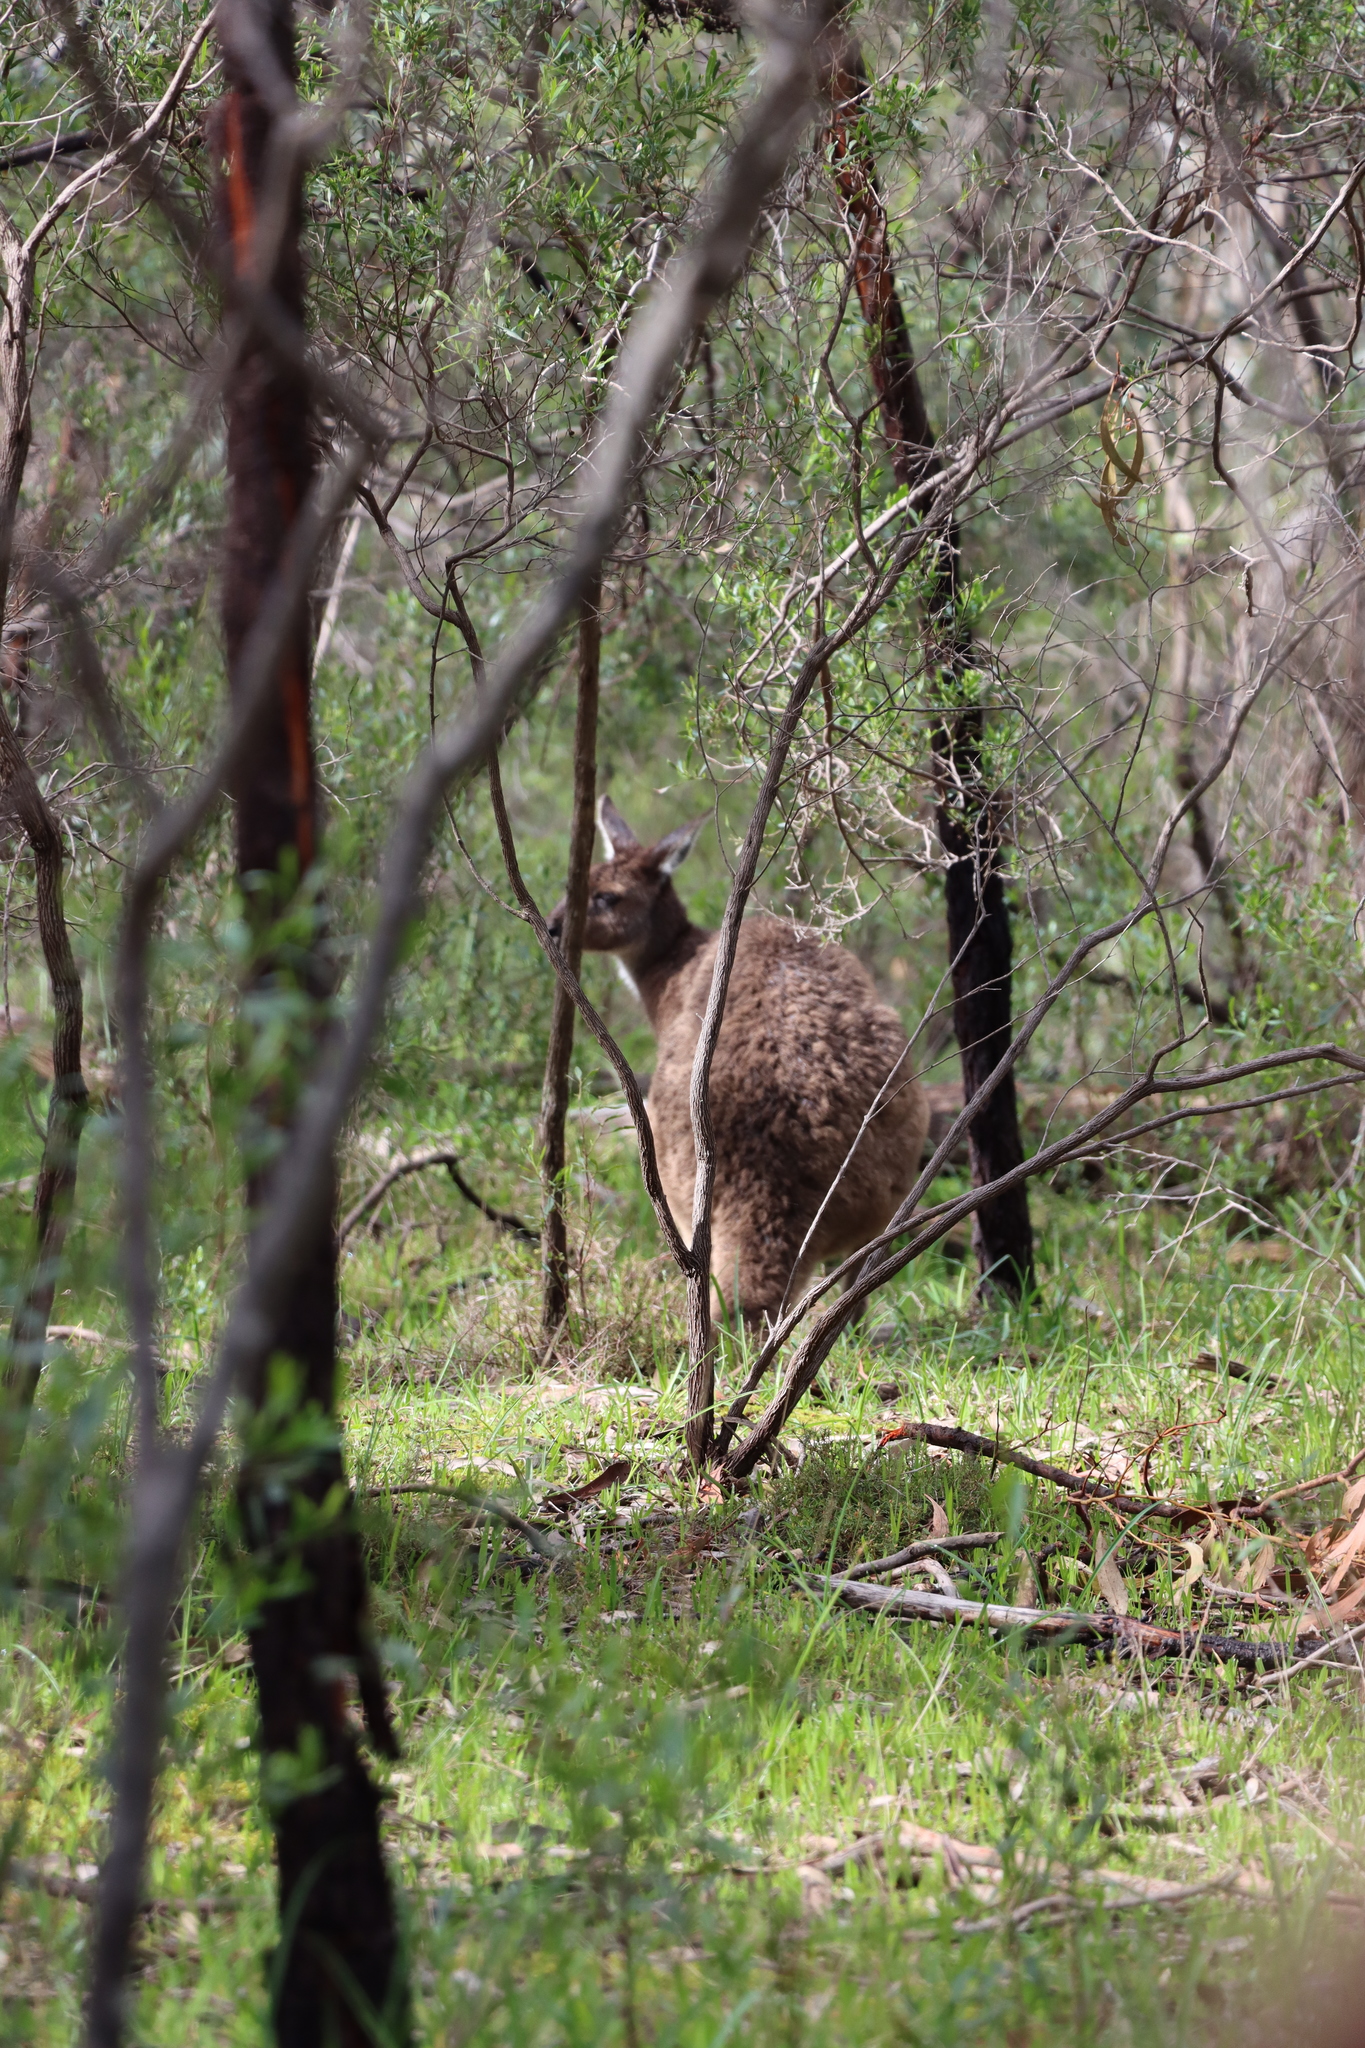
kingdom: Animalia
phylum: Chordata
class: Mammalia
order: Diprotodontia
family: Macropodidae
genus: Macropus
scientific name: Macropus fuliginosus
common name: Western grey kangaroo
